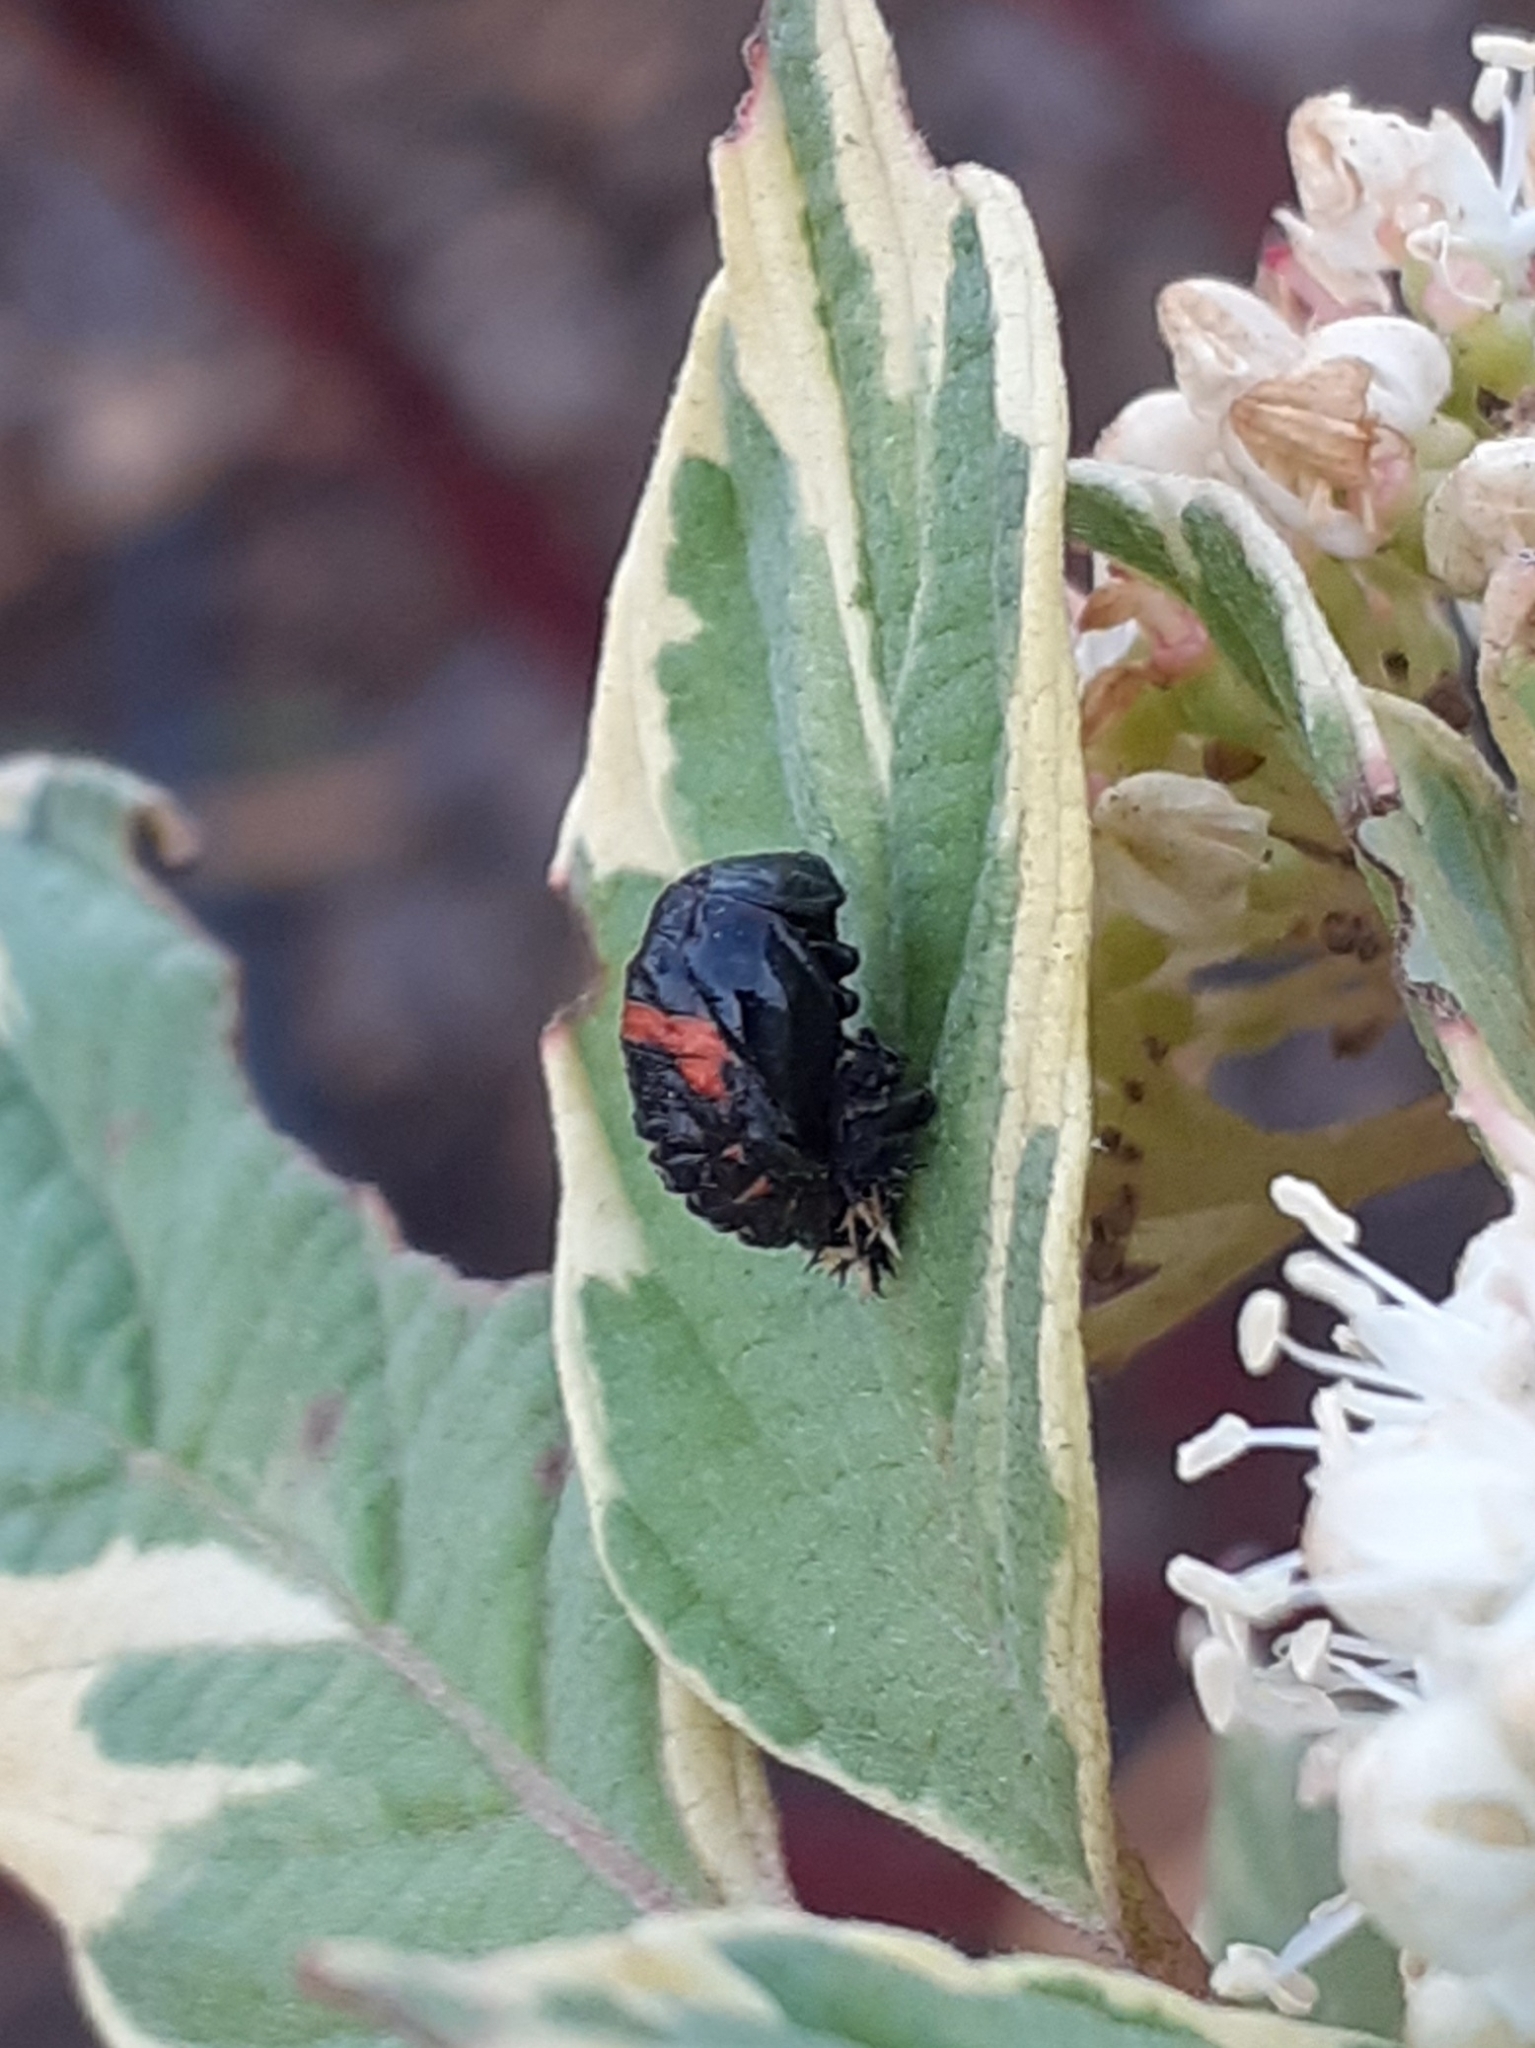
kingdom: Animalia
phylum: Arthropoda
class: Insecta
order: Coleoptera
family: Coccinellidae
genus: Harmonia
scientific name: Harmonia axyridis
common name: Harlequin ladybird
